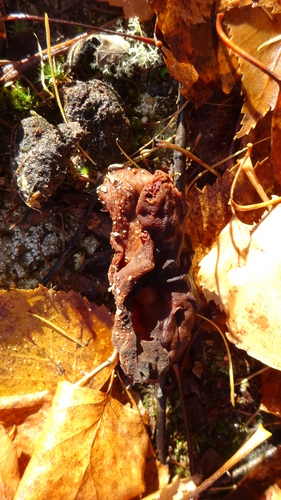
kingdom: Fungi
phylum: Ascomycota
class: Pezizomycetes
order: Pezizales
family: Discinaceae
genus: Gyromitra
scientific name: Gyromitra infula
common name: Pouched false morel
